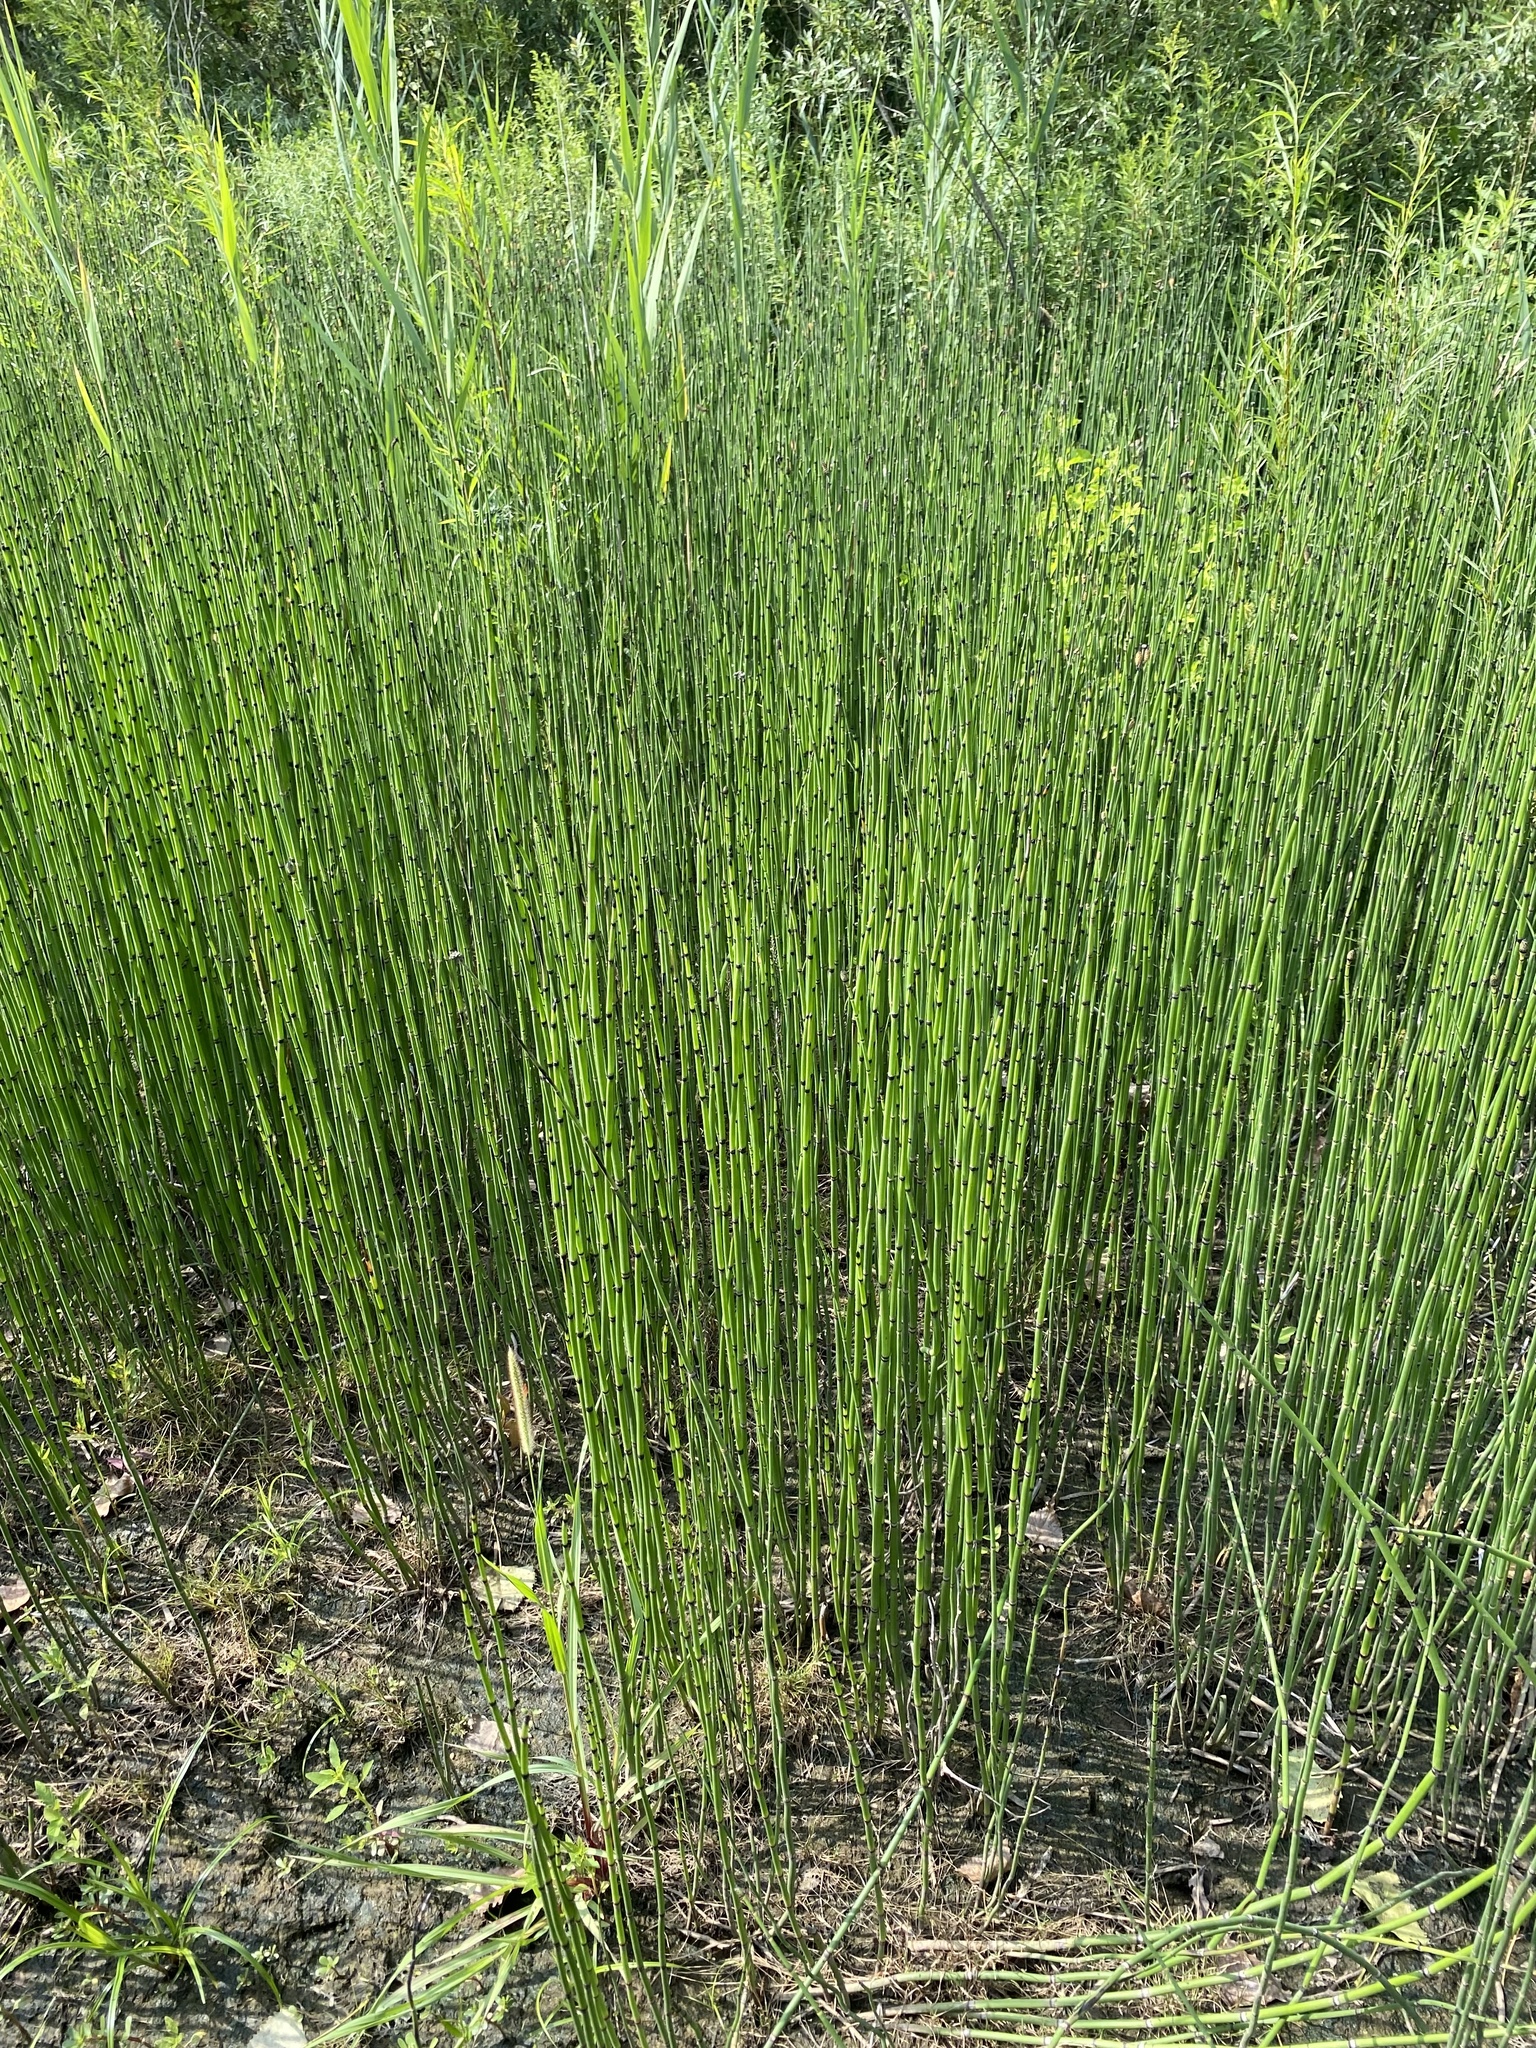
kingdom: Plantae
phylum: Tracheophyta
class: Polypodiopsida
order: Equisetales
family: Equisetaceae
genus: Equisetum
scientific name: Equisetum hyemale
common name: Rough horsetail
